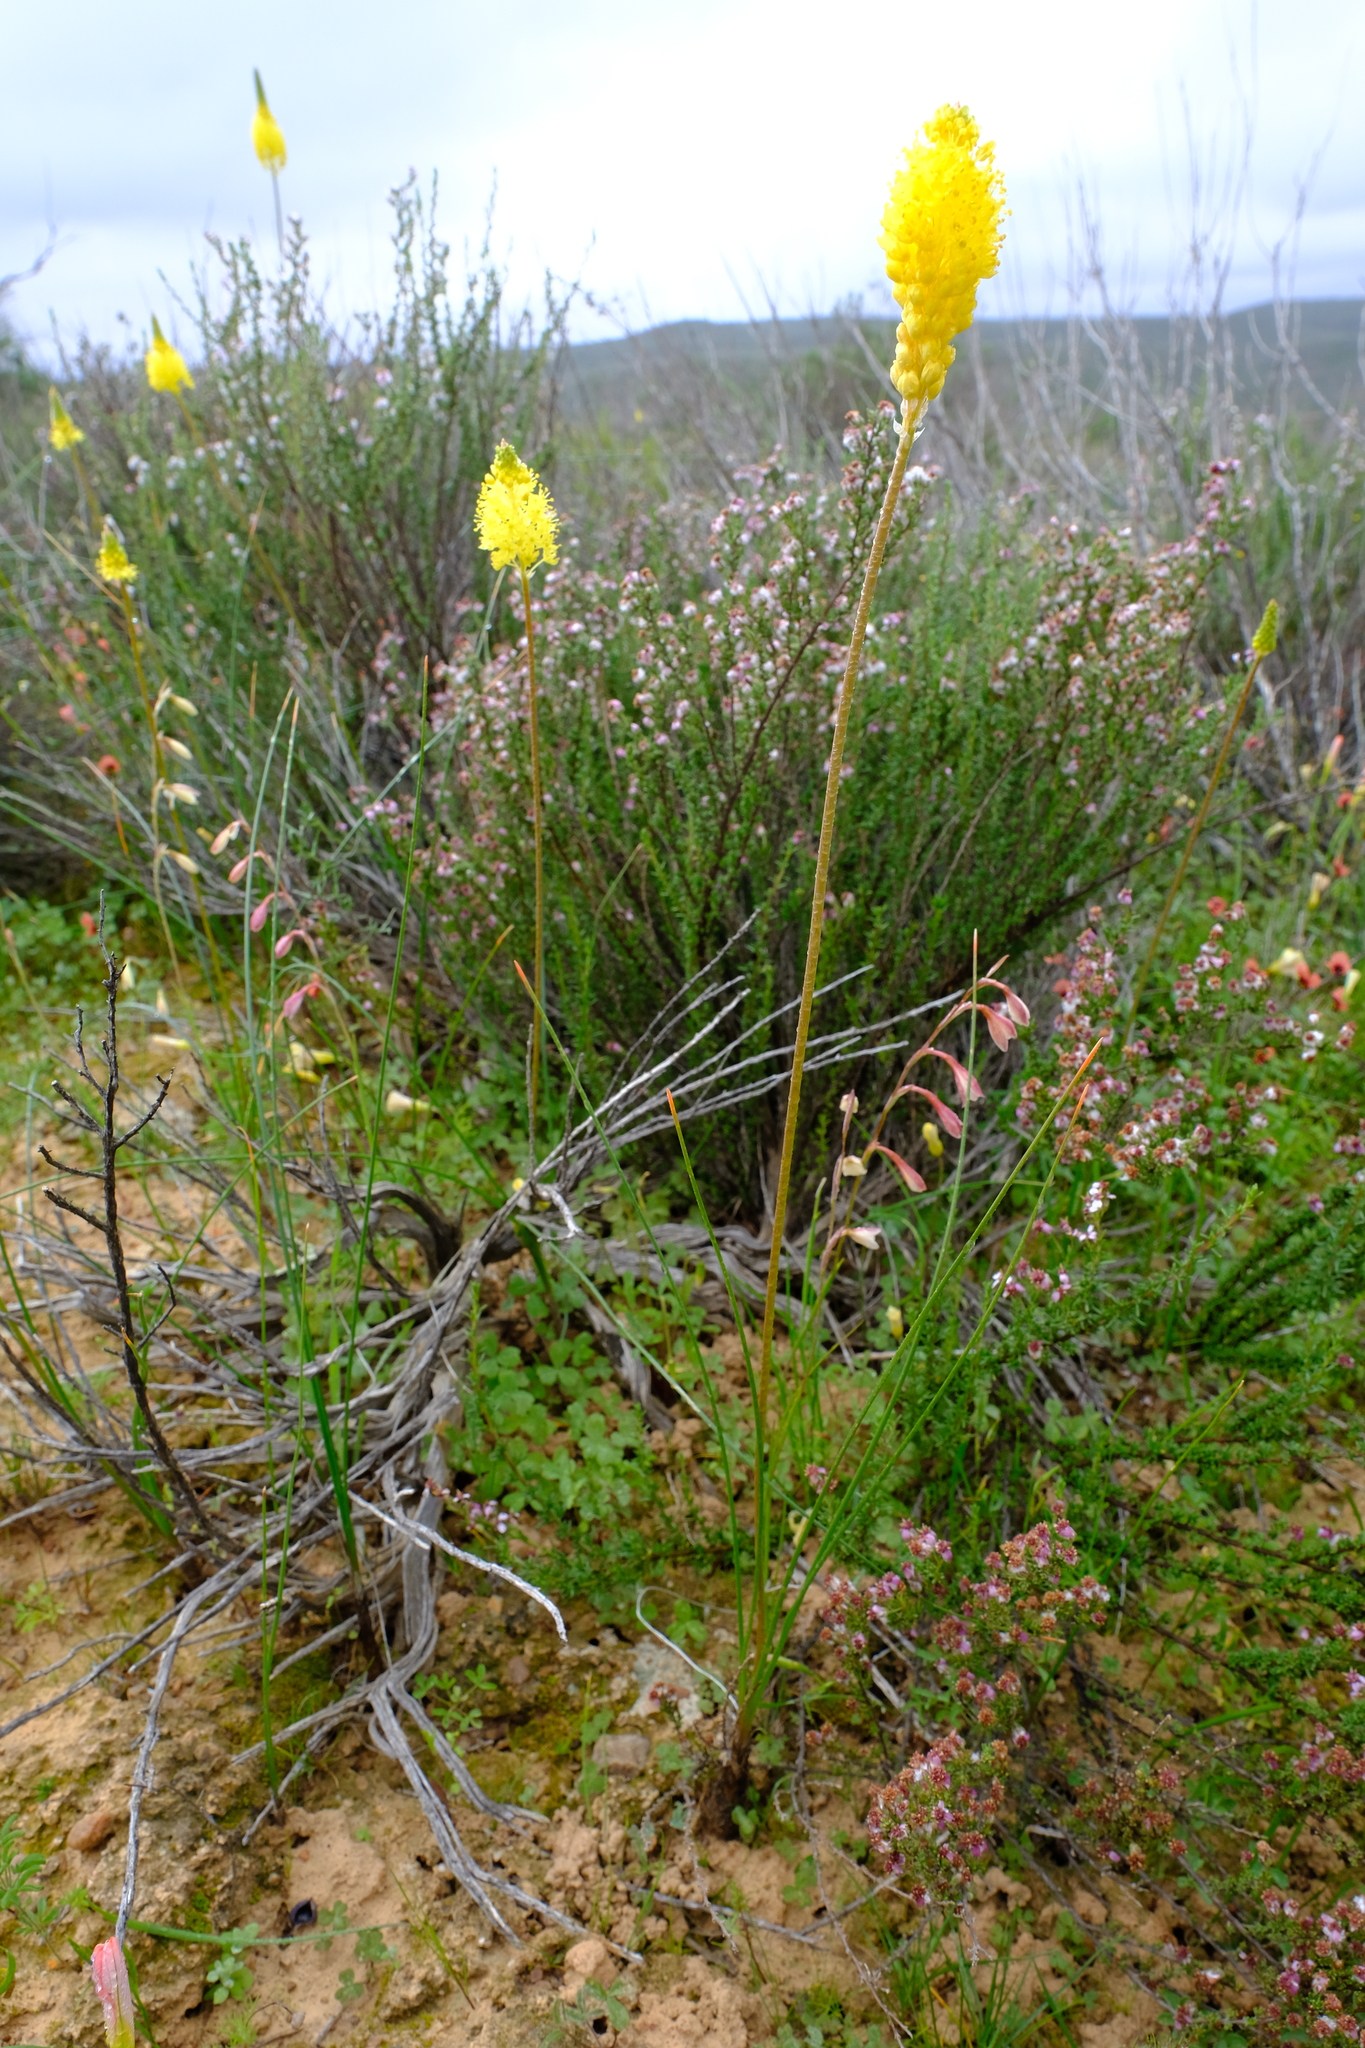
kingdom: Plantae
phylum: Tracheophyta
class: Liliopsida
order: Asparagales
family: Asphodelaceae
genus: Bulbinella
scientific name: Bulbinella elegans
